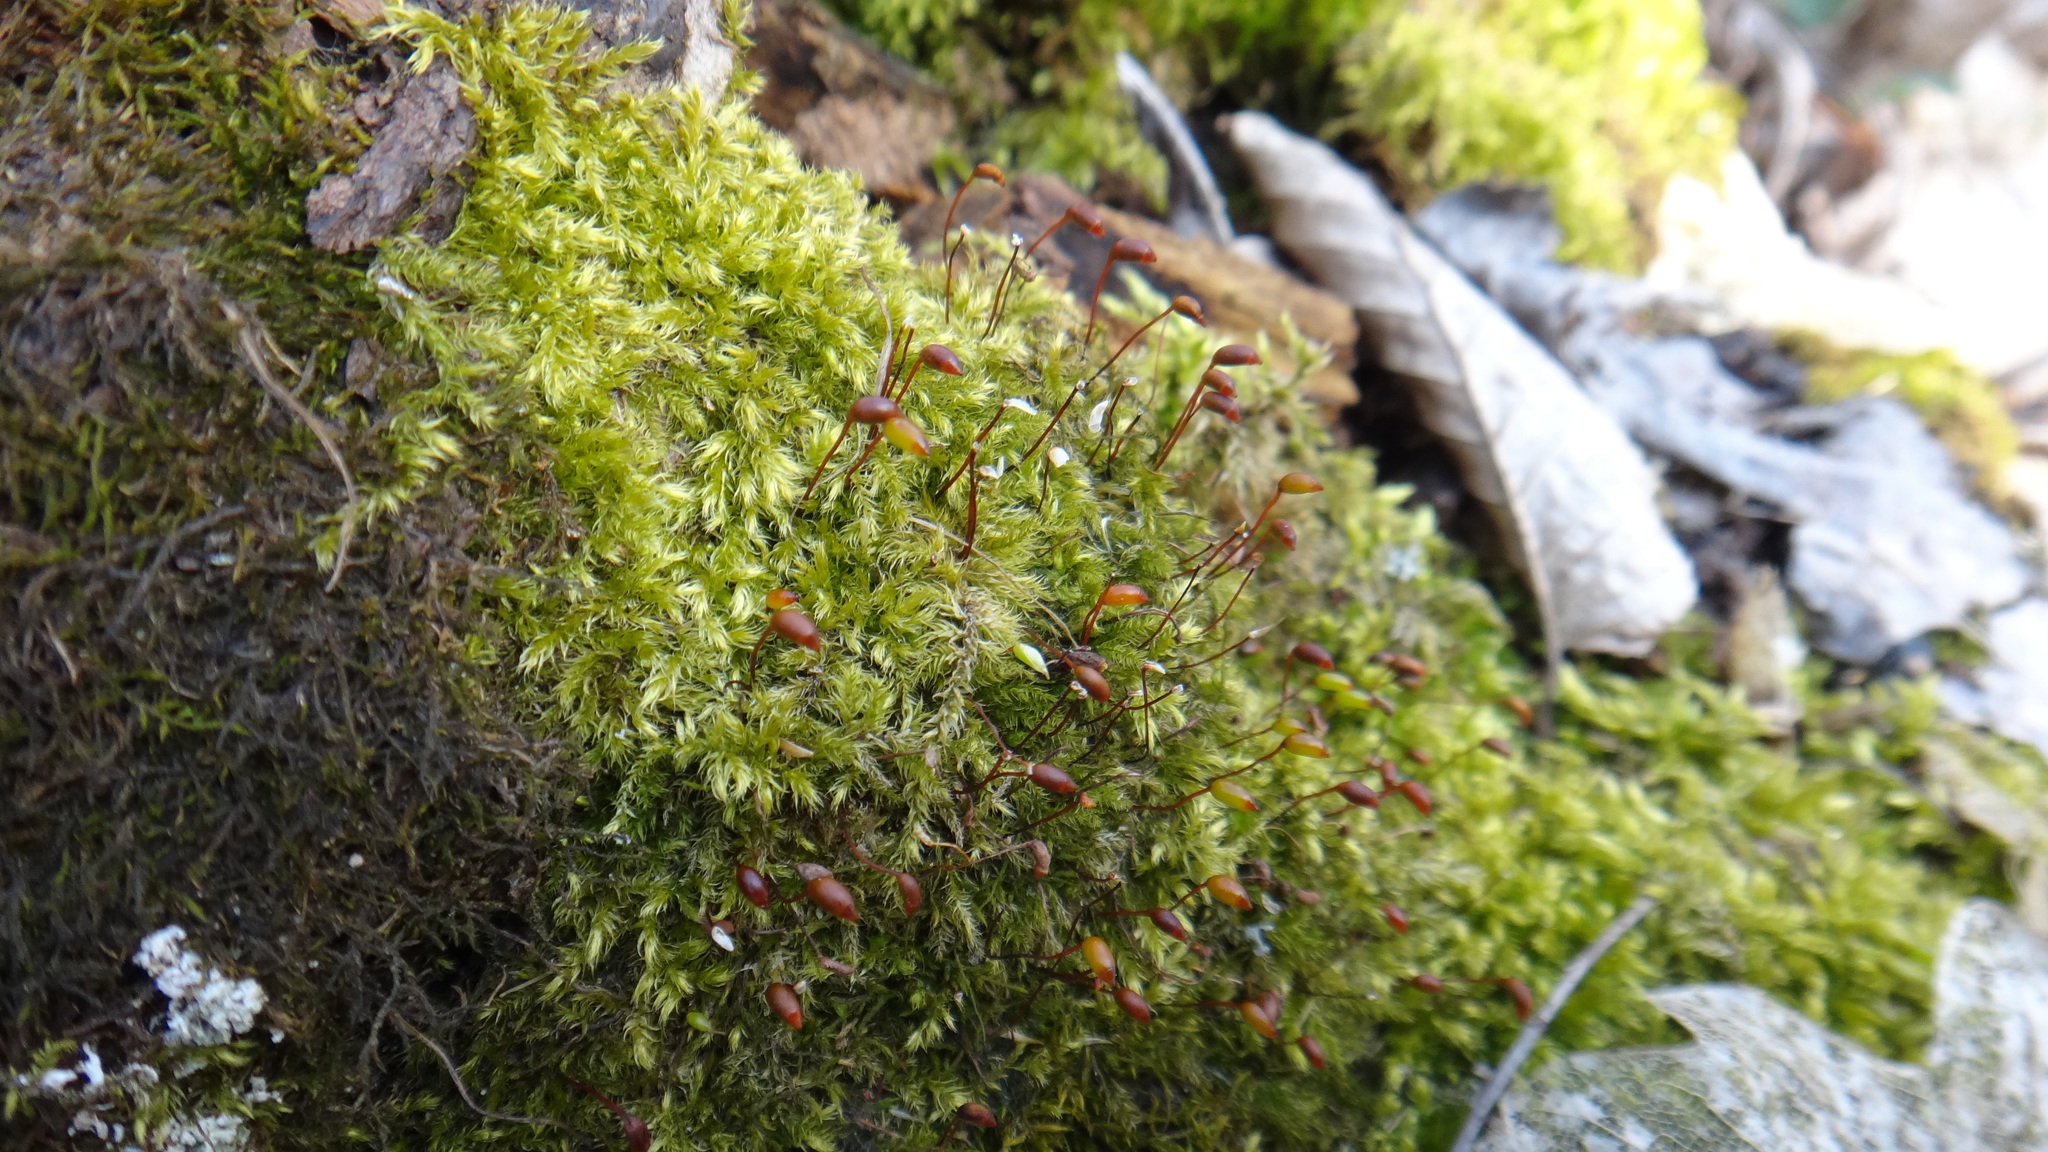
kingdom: Plantae
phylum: Bryophyta
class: Bryopsida
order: Hypnales
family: Brachytheciaceae
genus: Brachytheciastrum
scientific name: Brachytheciastrum velutinum
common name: Velvet feather-moss
